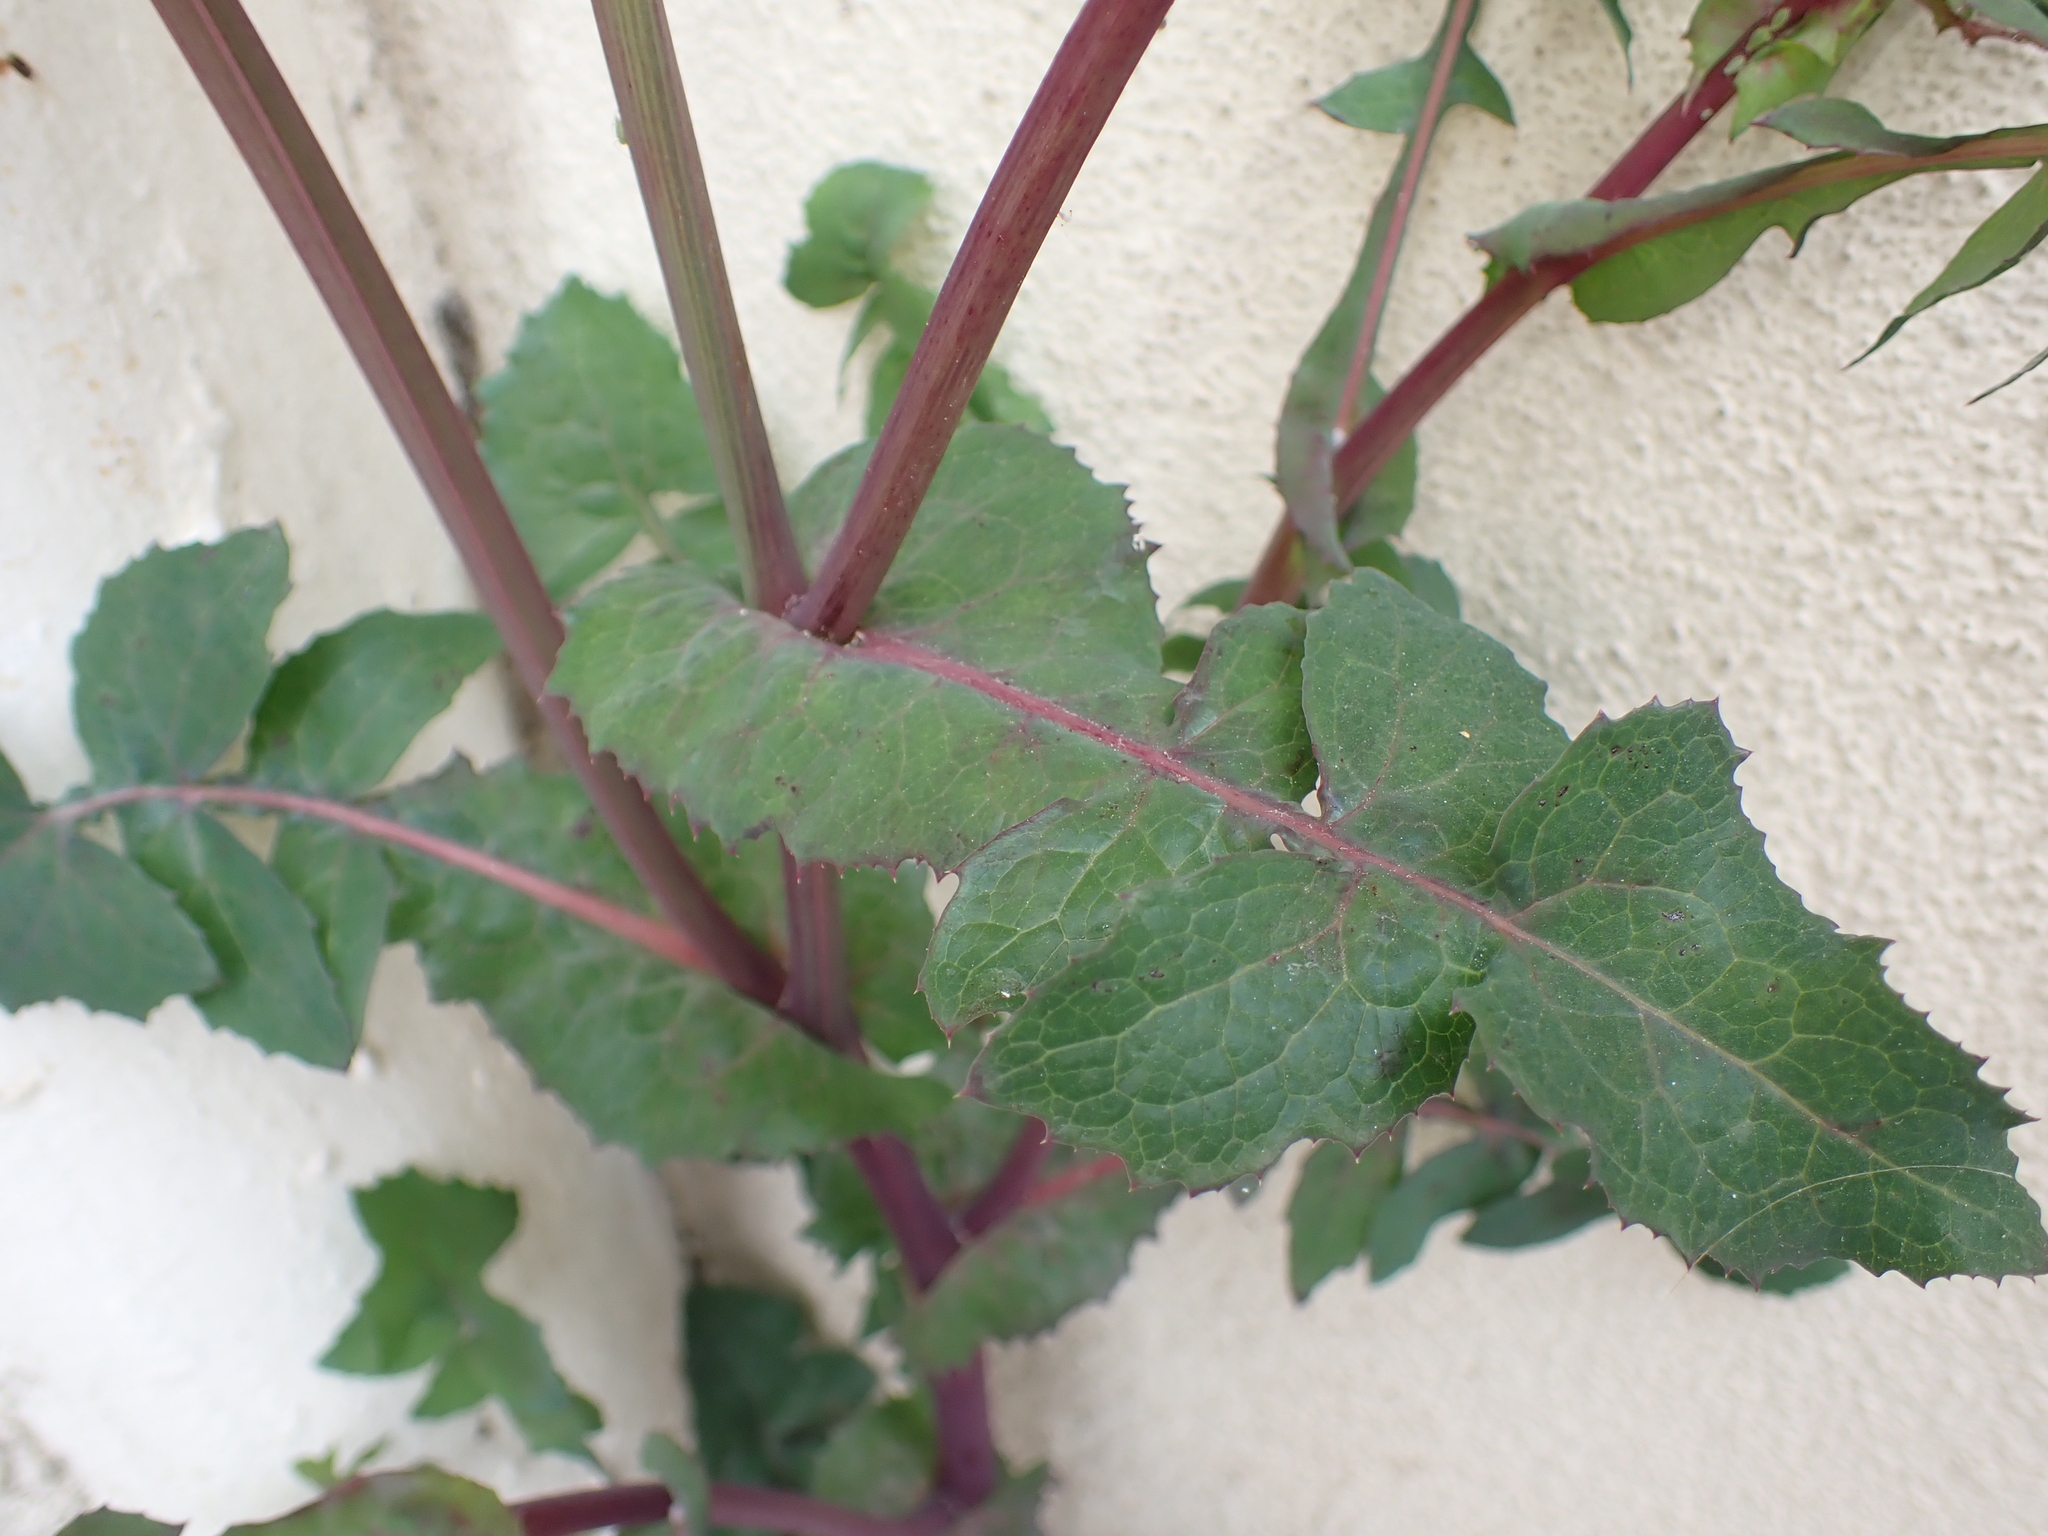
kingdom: Plantae
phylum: Tracheophyta
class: Magnoliopsida
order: Asterales
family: Asteraceae
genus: Sonchus
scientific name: Sonchus oleraceus
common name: Common sowthistle
